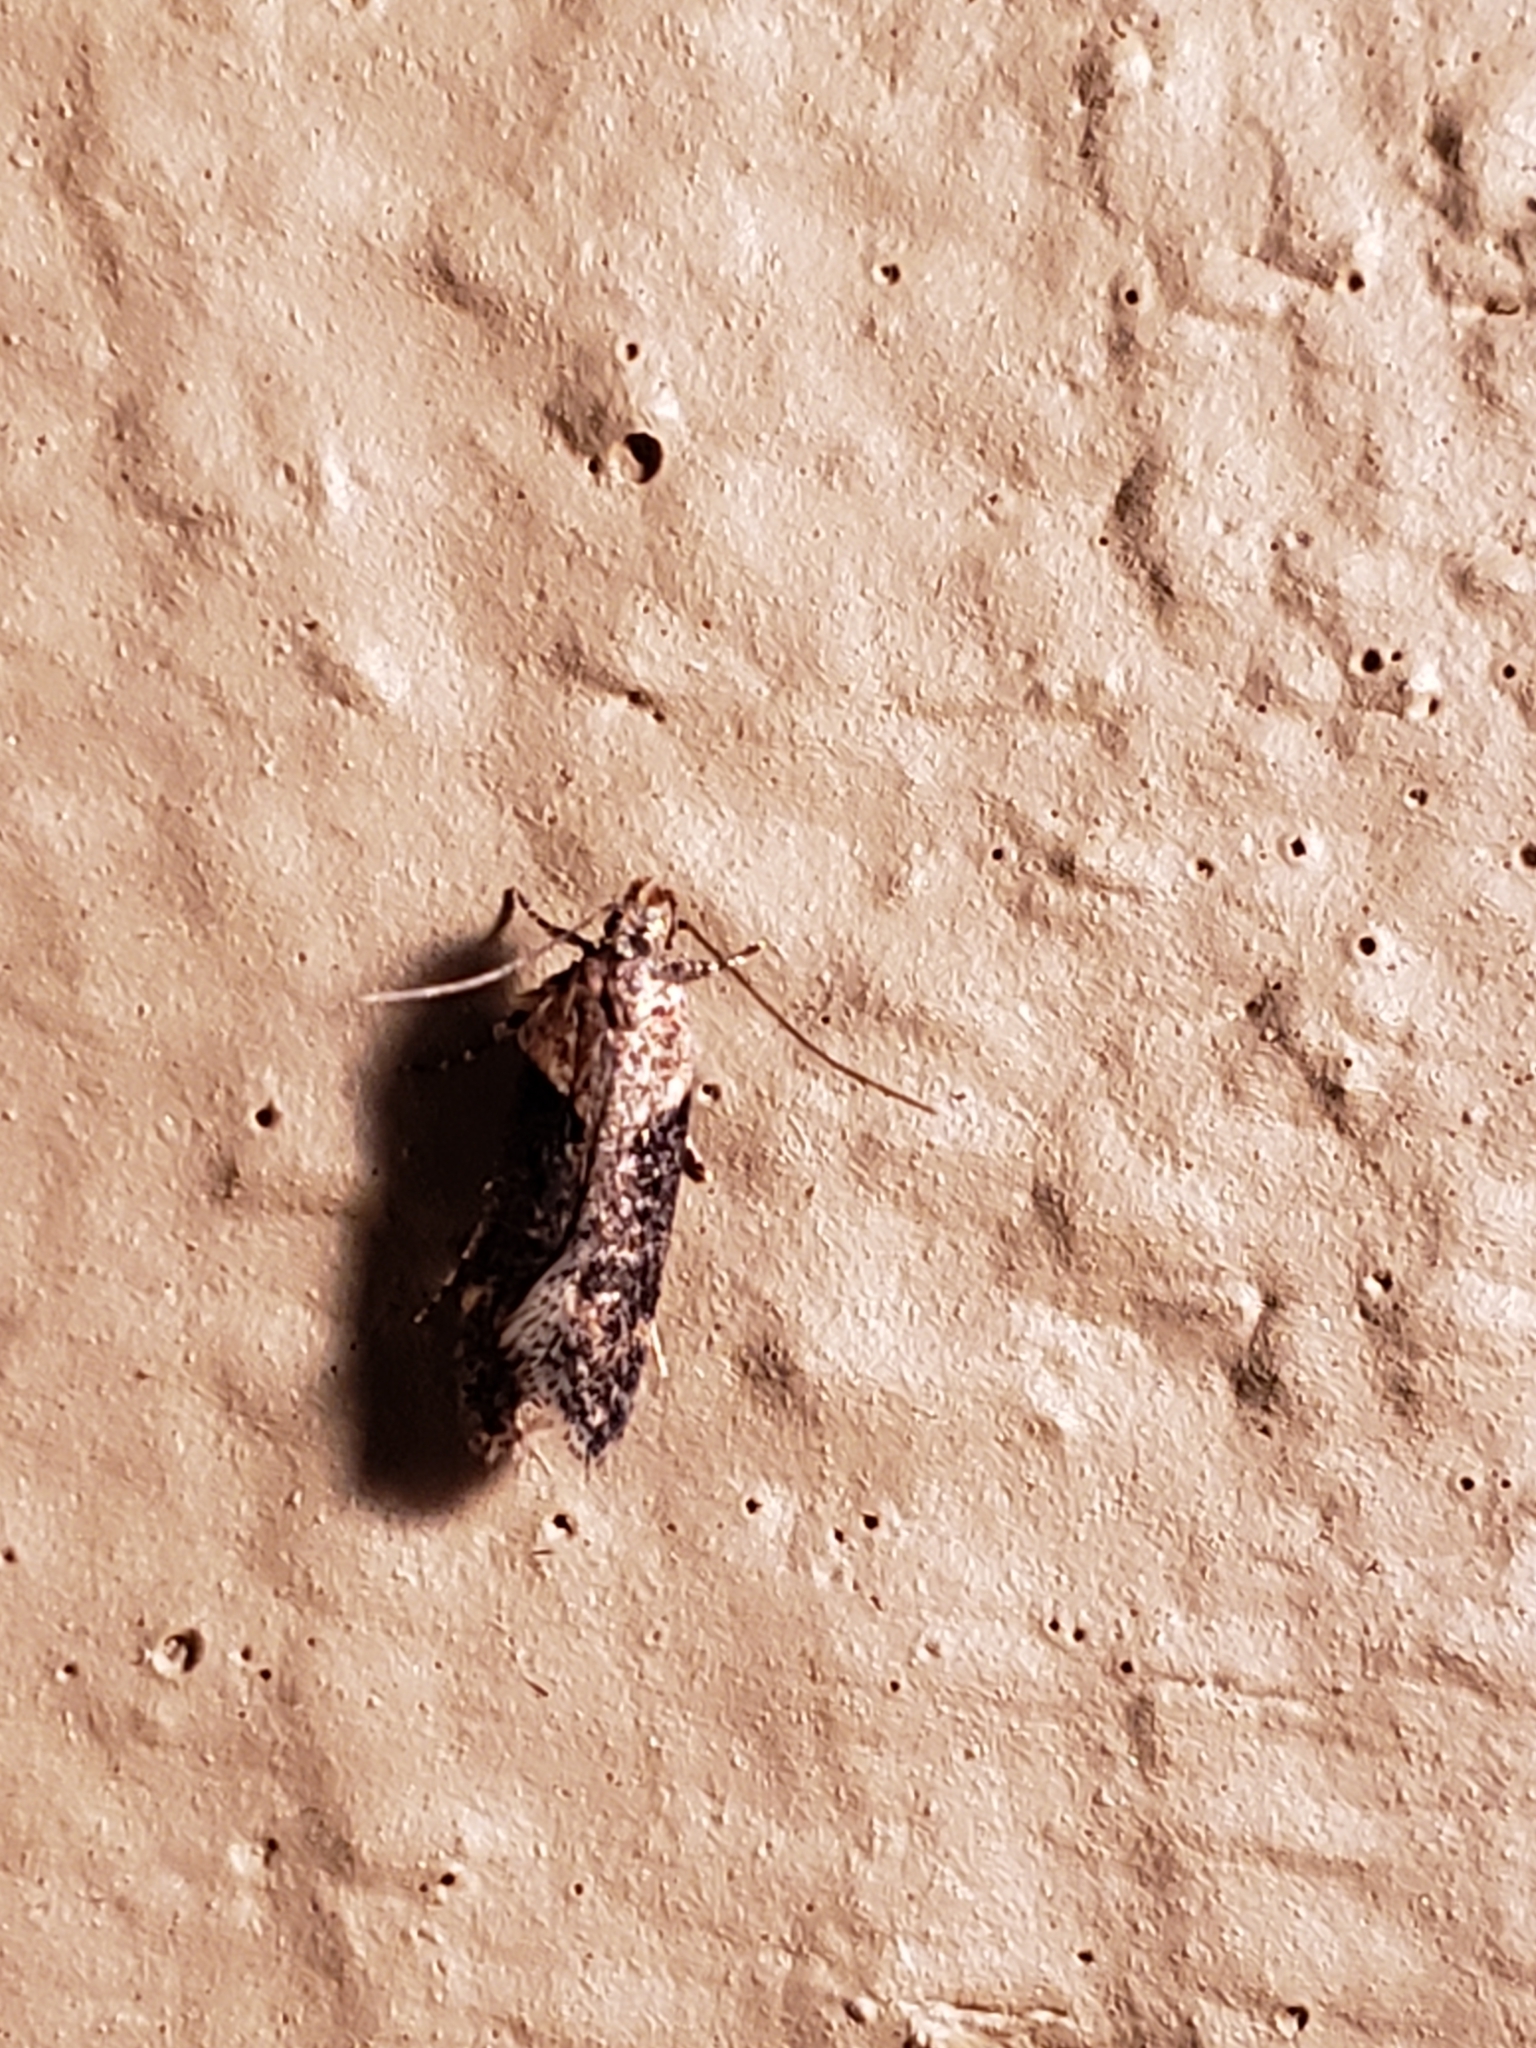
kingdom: Animalia
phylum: Arthropoda
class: Insecta
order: Lepidoptera
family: Gelechiidae
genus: Chionodes
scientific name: Chionodes mediofuscella
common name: Black-smudged chionodes moth
